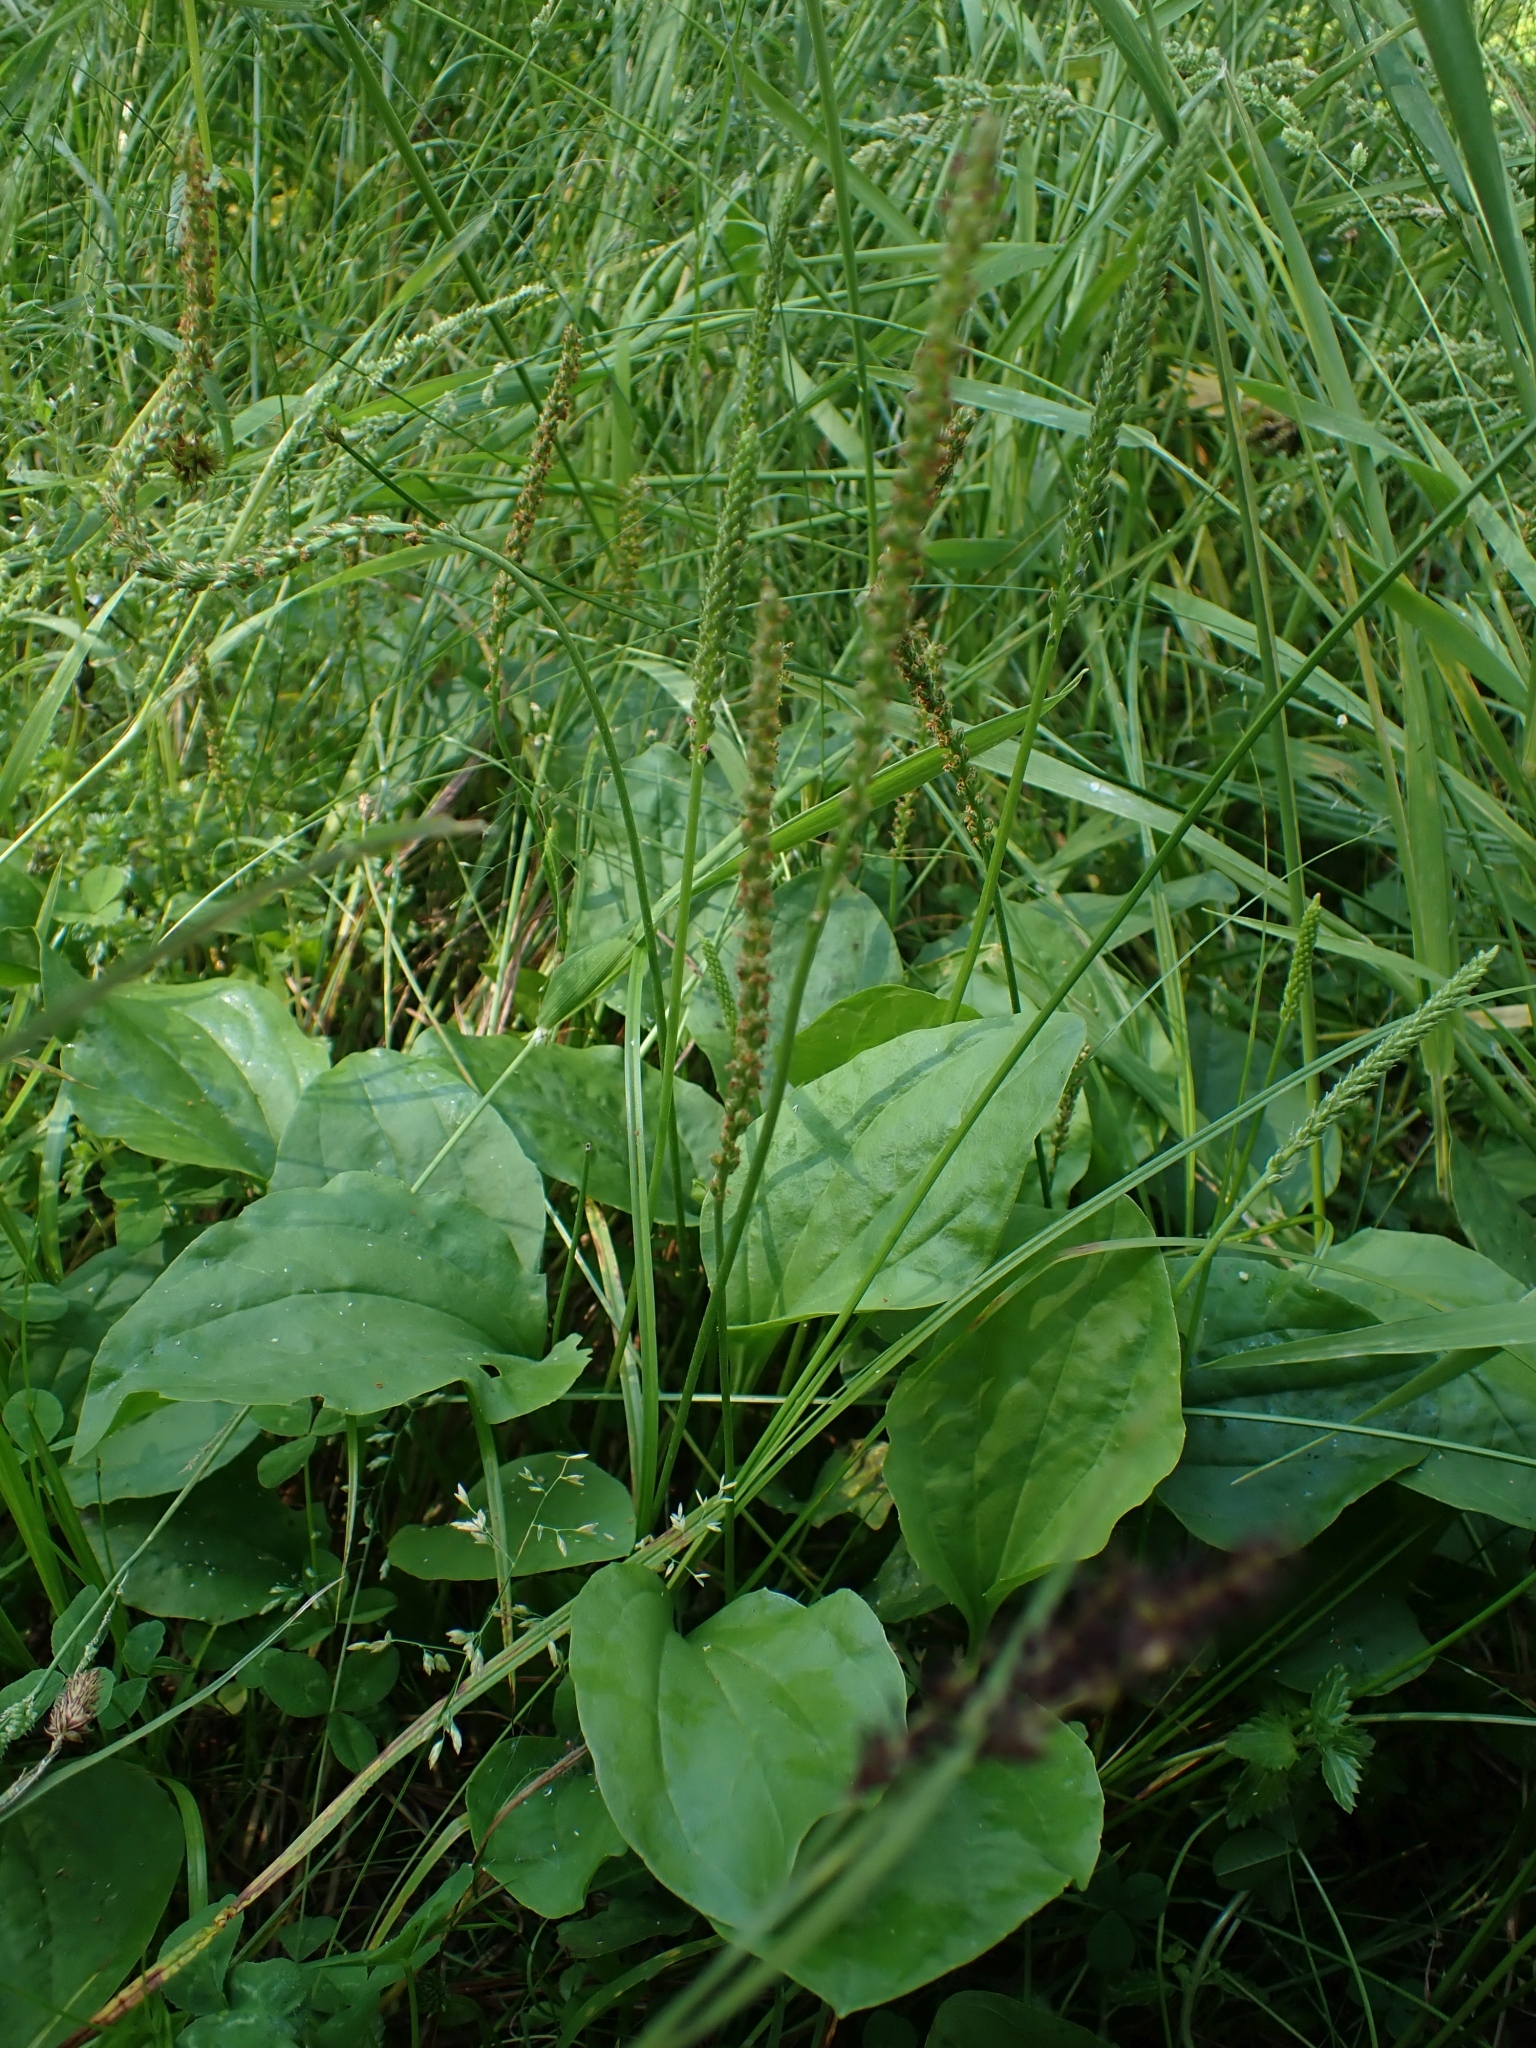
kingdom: Plantae
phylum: Tracheophyta
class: Magnoliopsida
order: Lamiales
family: Plantaginaceae
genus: Plantago
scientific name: Plantago major
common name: Common plantain
